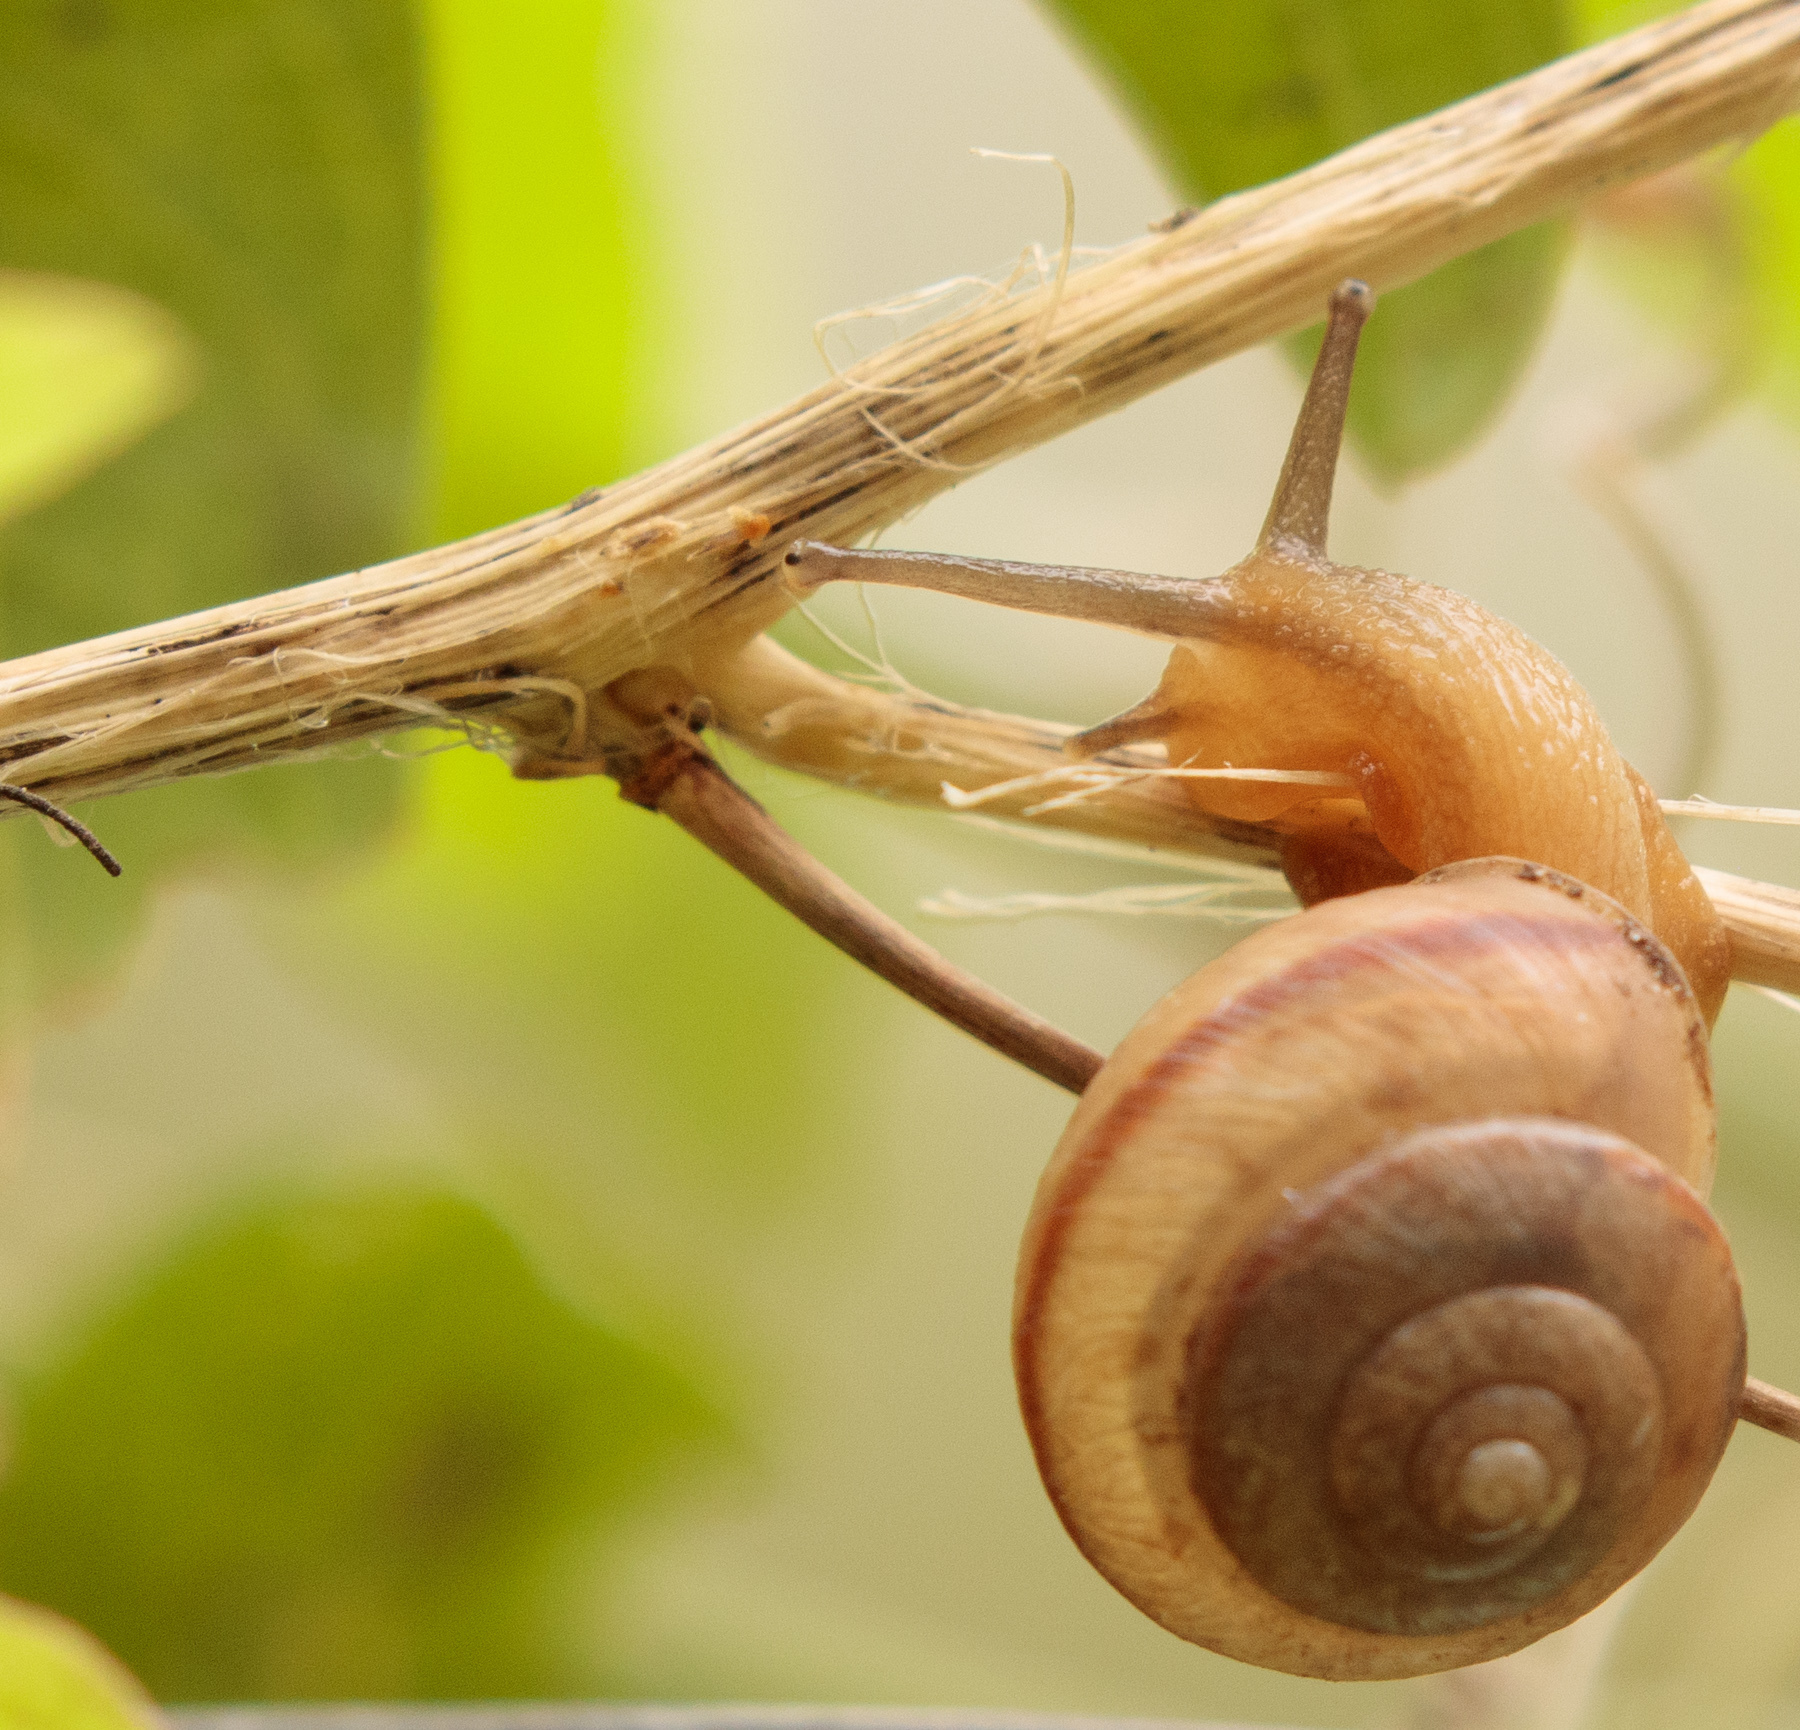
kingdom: Animalia
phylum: Mollusca
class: Gastropoda
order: Stylommatophora
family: Camaenidae
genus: Bradybaena
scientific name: Bradybaena similaris
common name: Asian trampsnail
